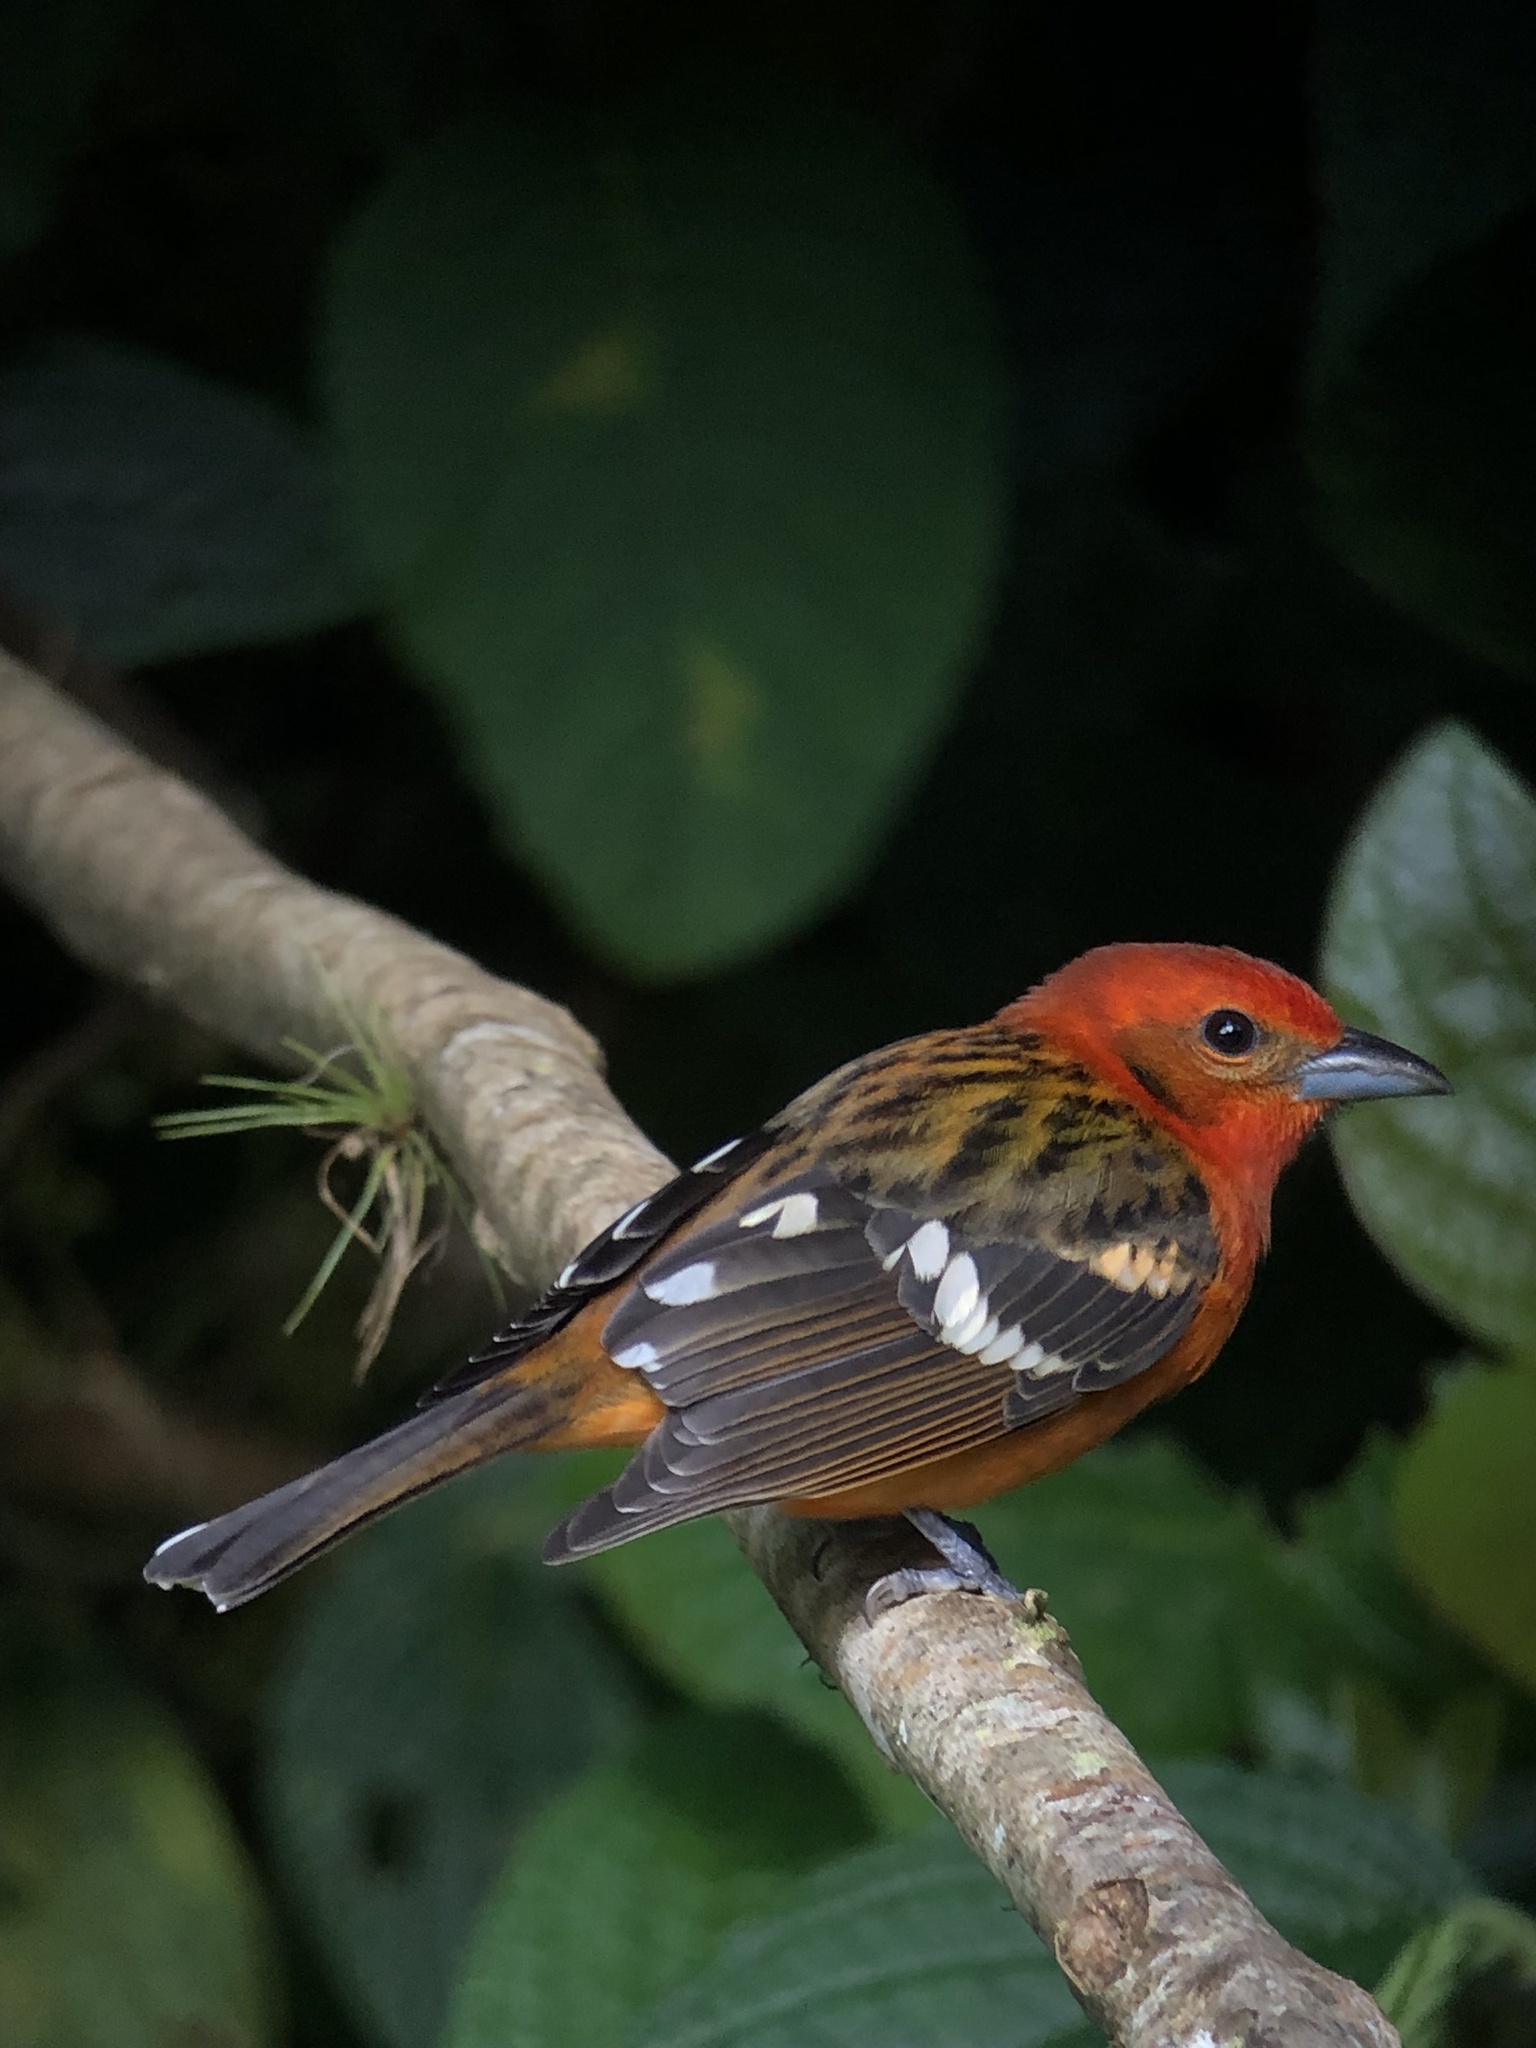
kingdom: Animalia
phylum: Chordata
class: Aves
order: Passeriformes
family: Cardinalidae
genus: Piranga
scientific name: Piranga bidentata
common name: Flame-colored tanager
